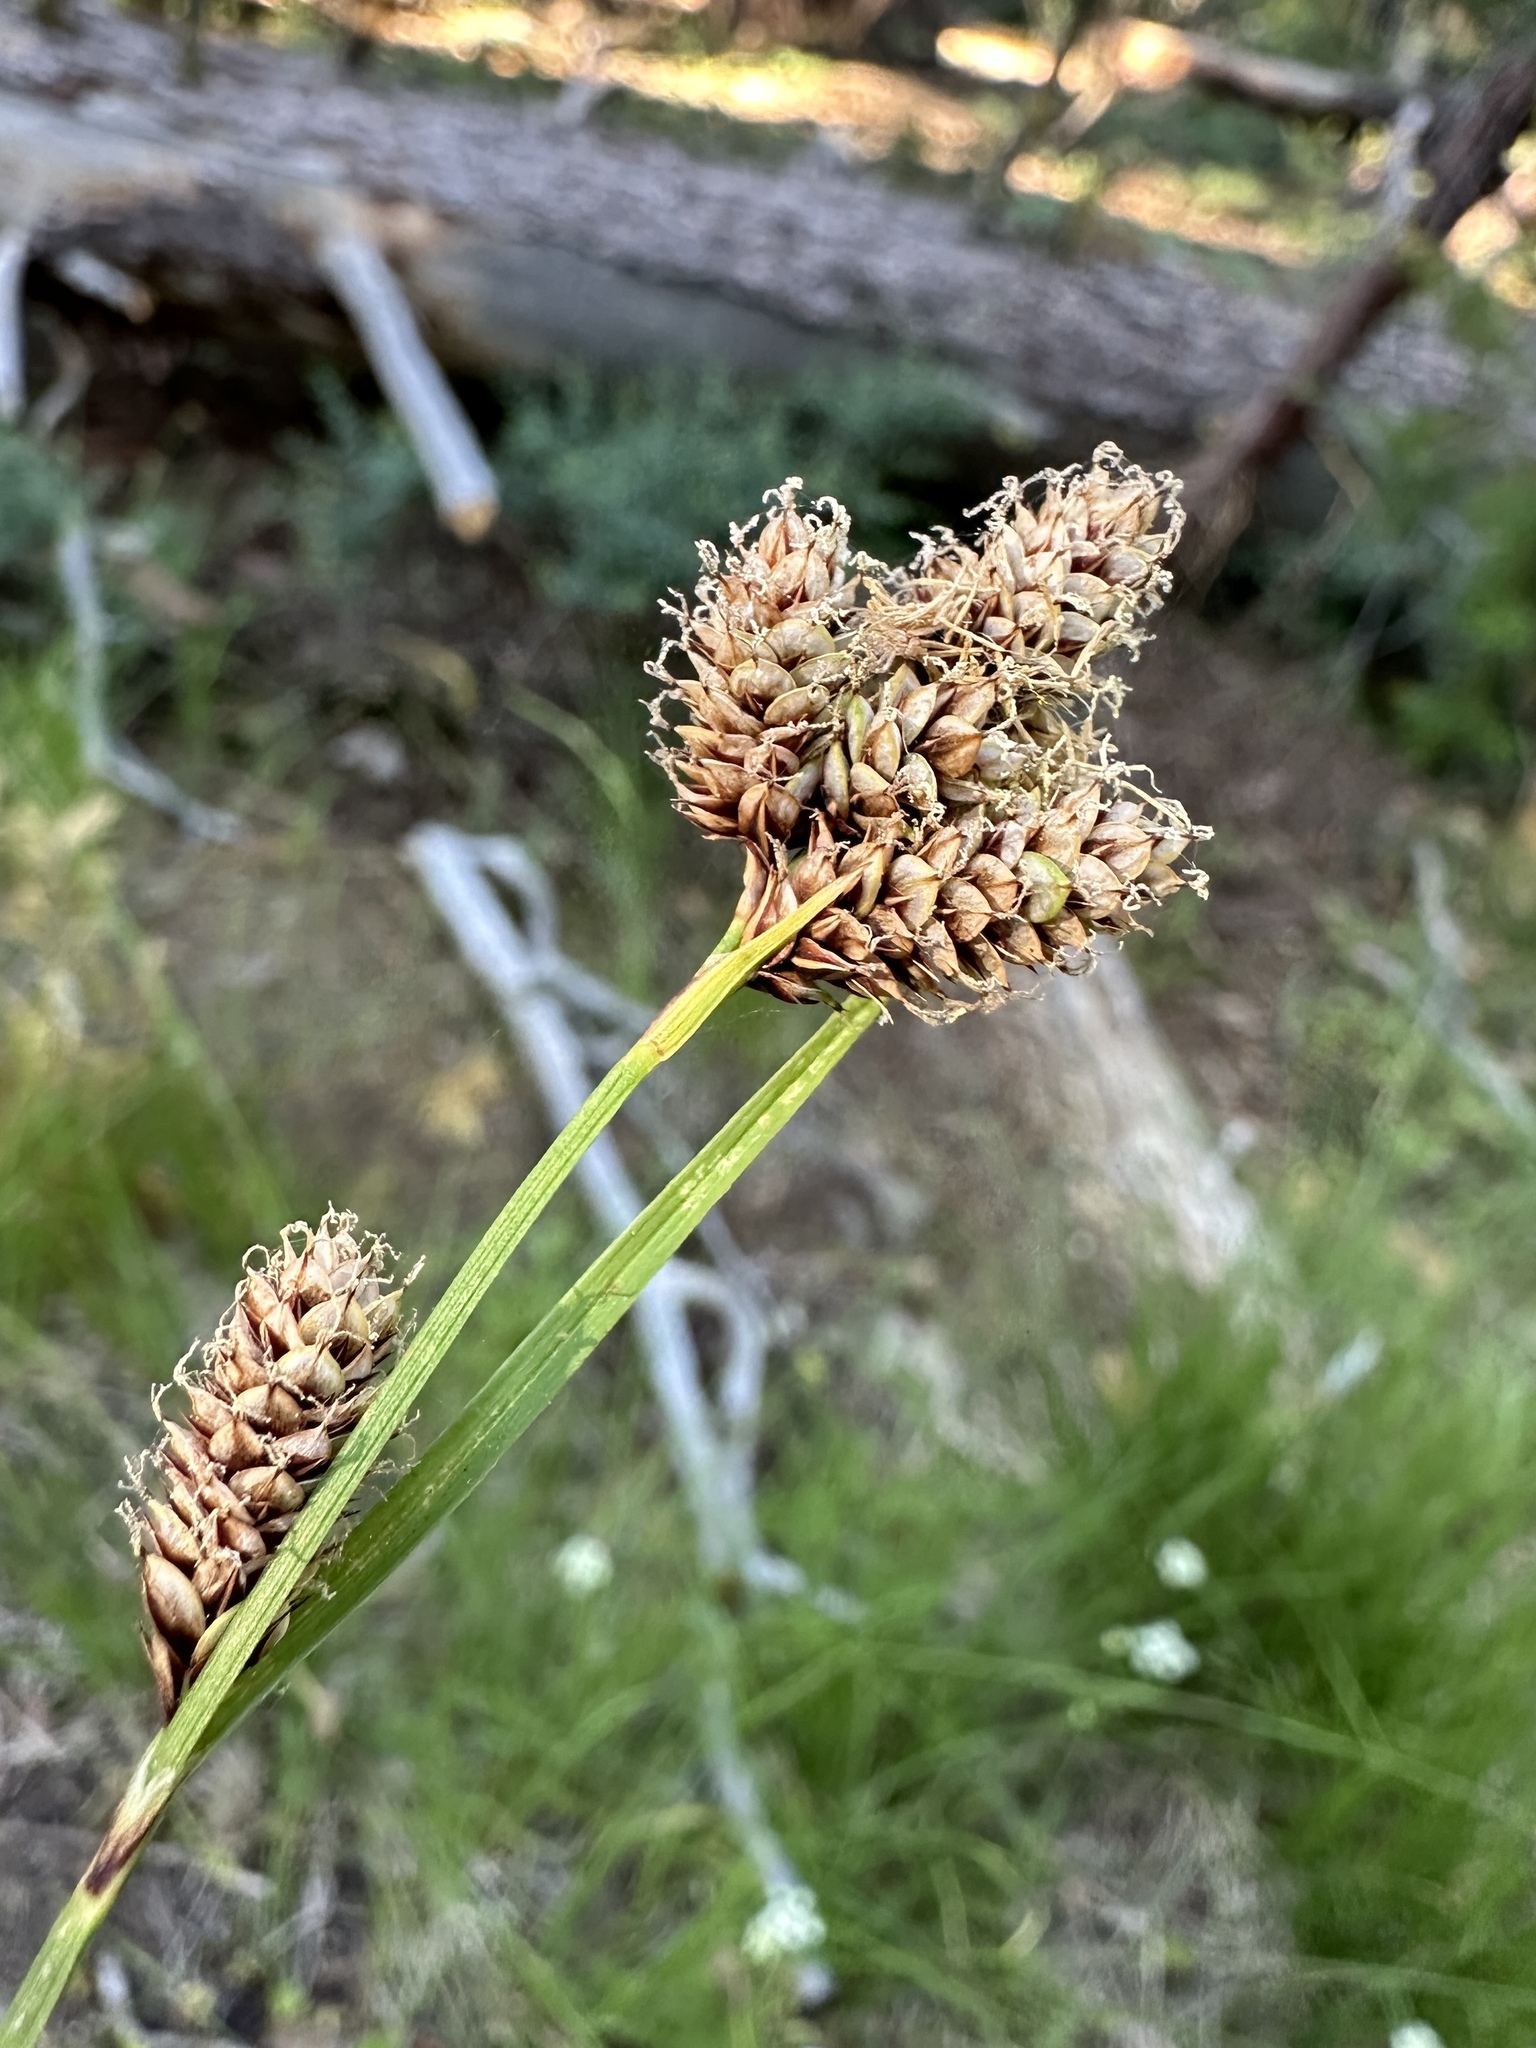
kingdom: Plantae
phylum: Tracheophyta
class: Liliopsida
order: Poales
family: Cyperaceae
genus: Carex
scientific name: Carex heteroneura
